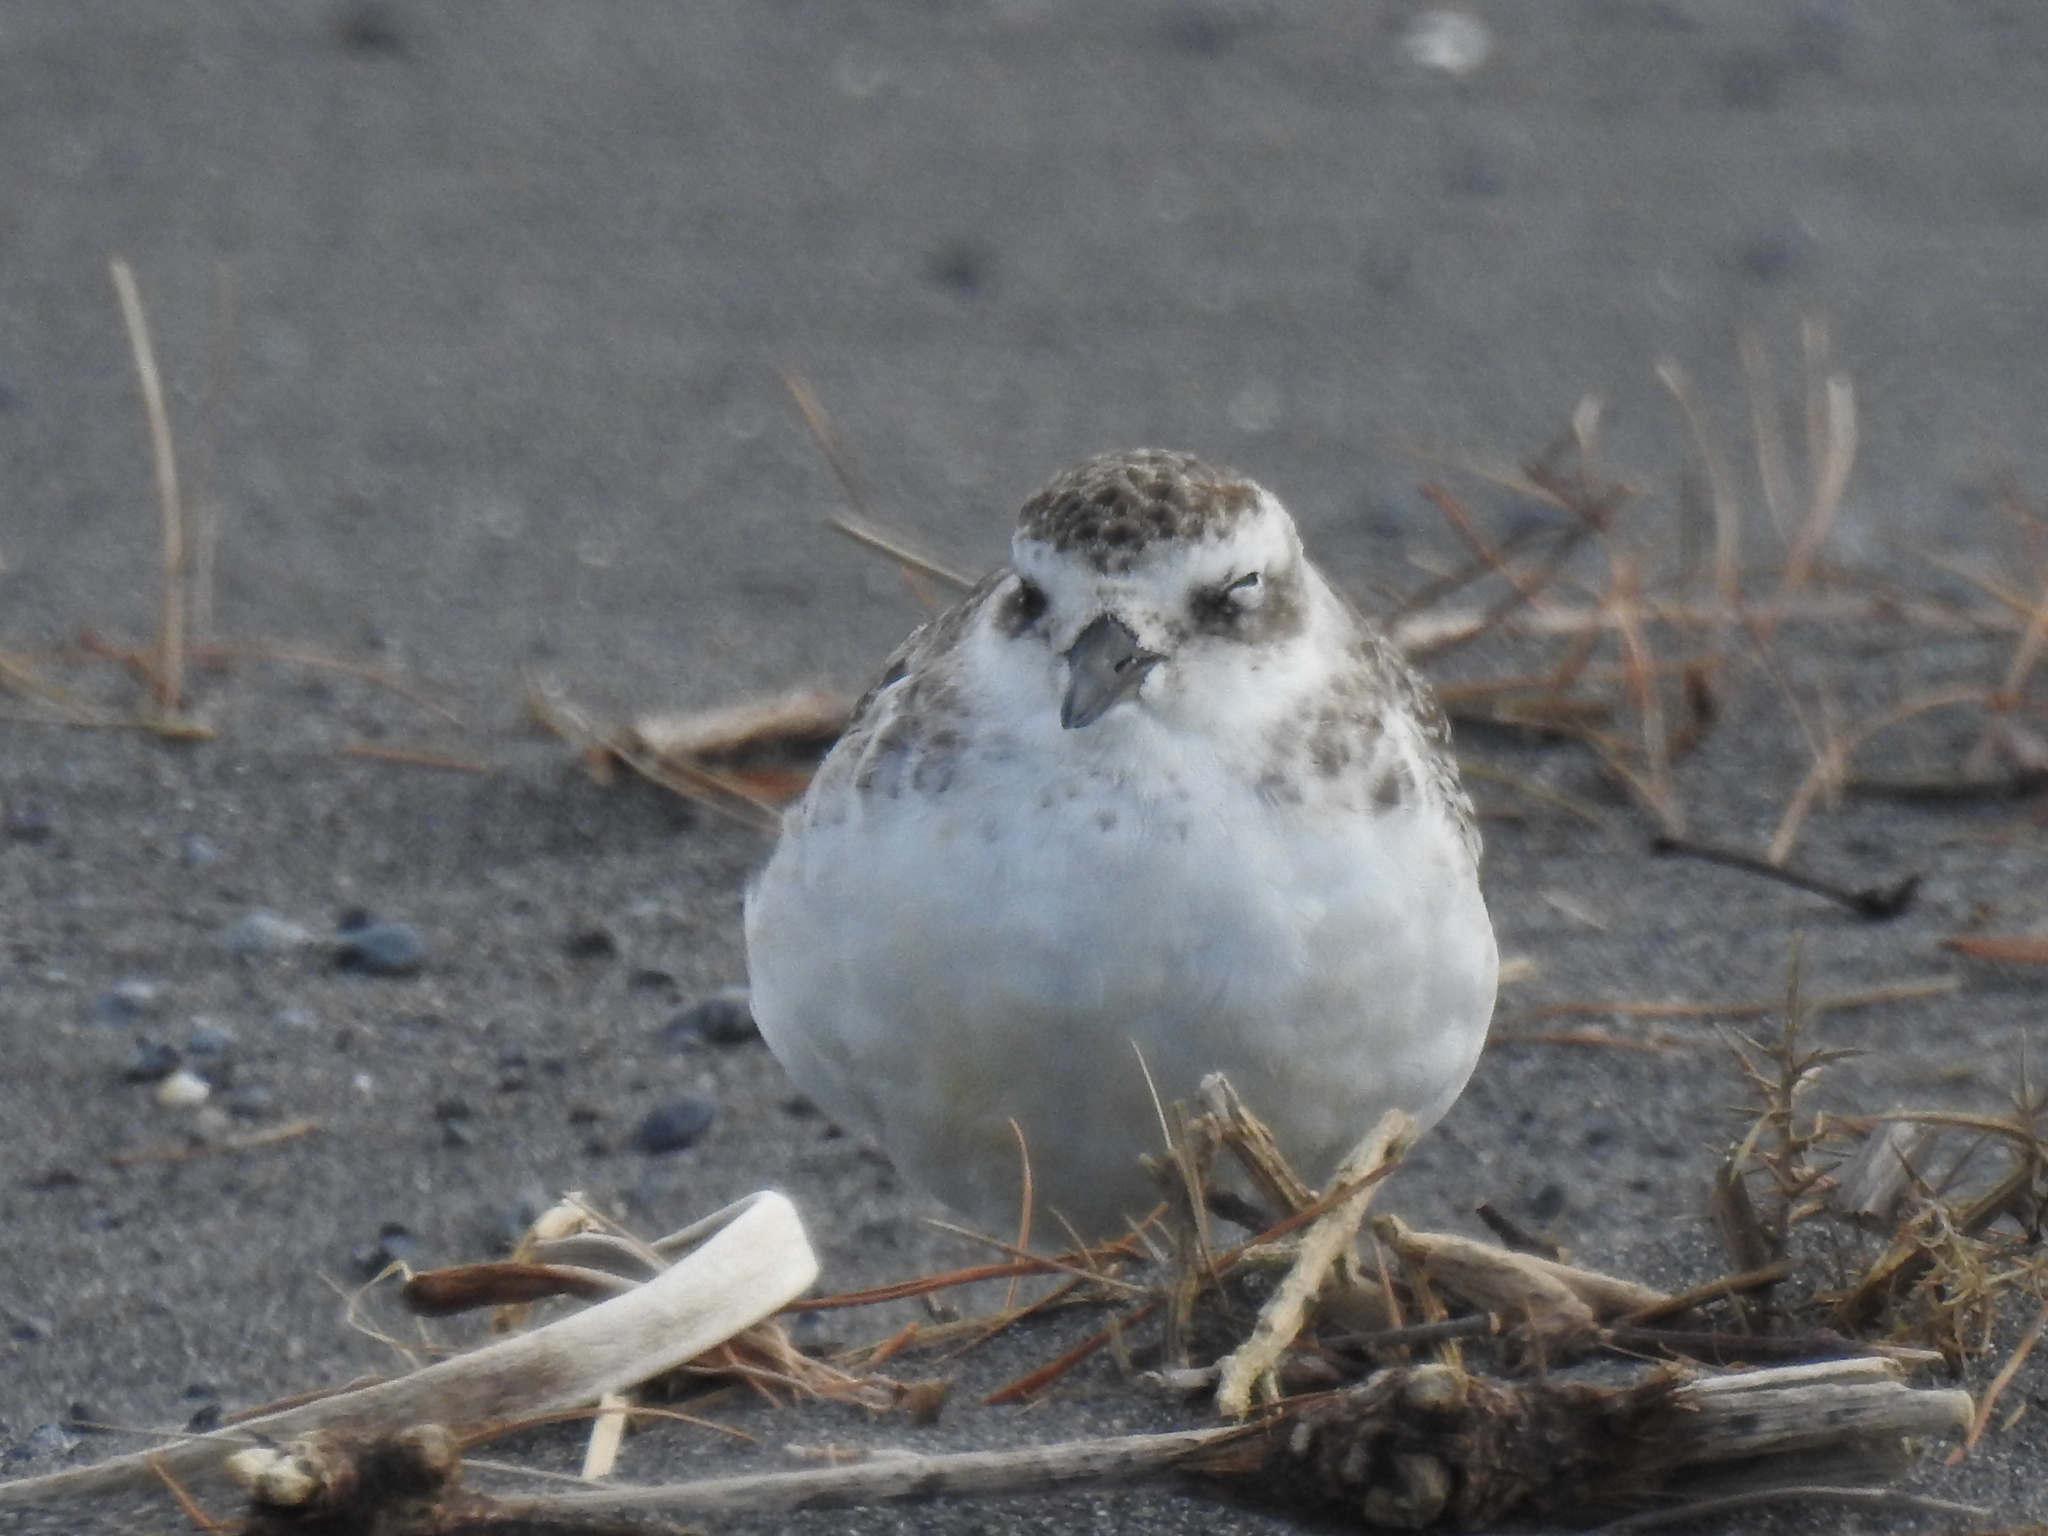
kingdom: Animalia
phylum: Chordata
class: Aves
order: Charadriiformes
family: Charadriidae
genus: Anarhynchus
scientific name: Anarhynchus
